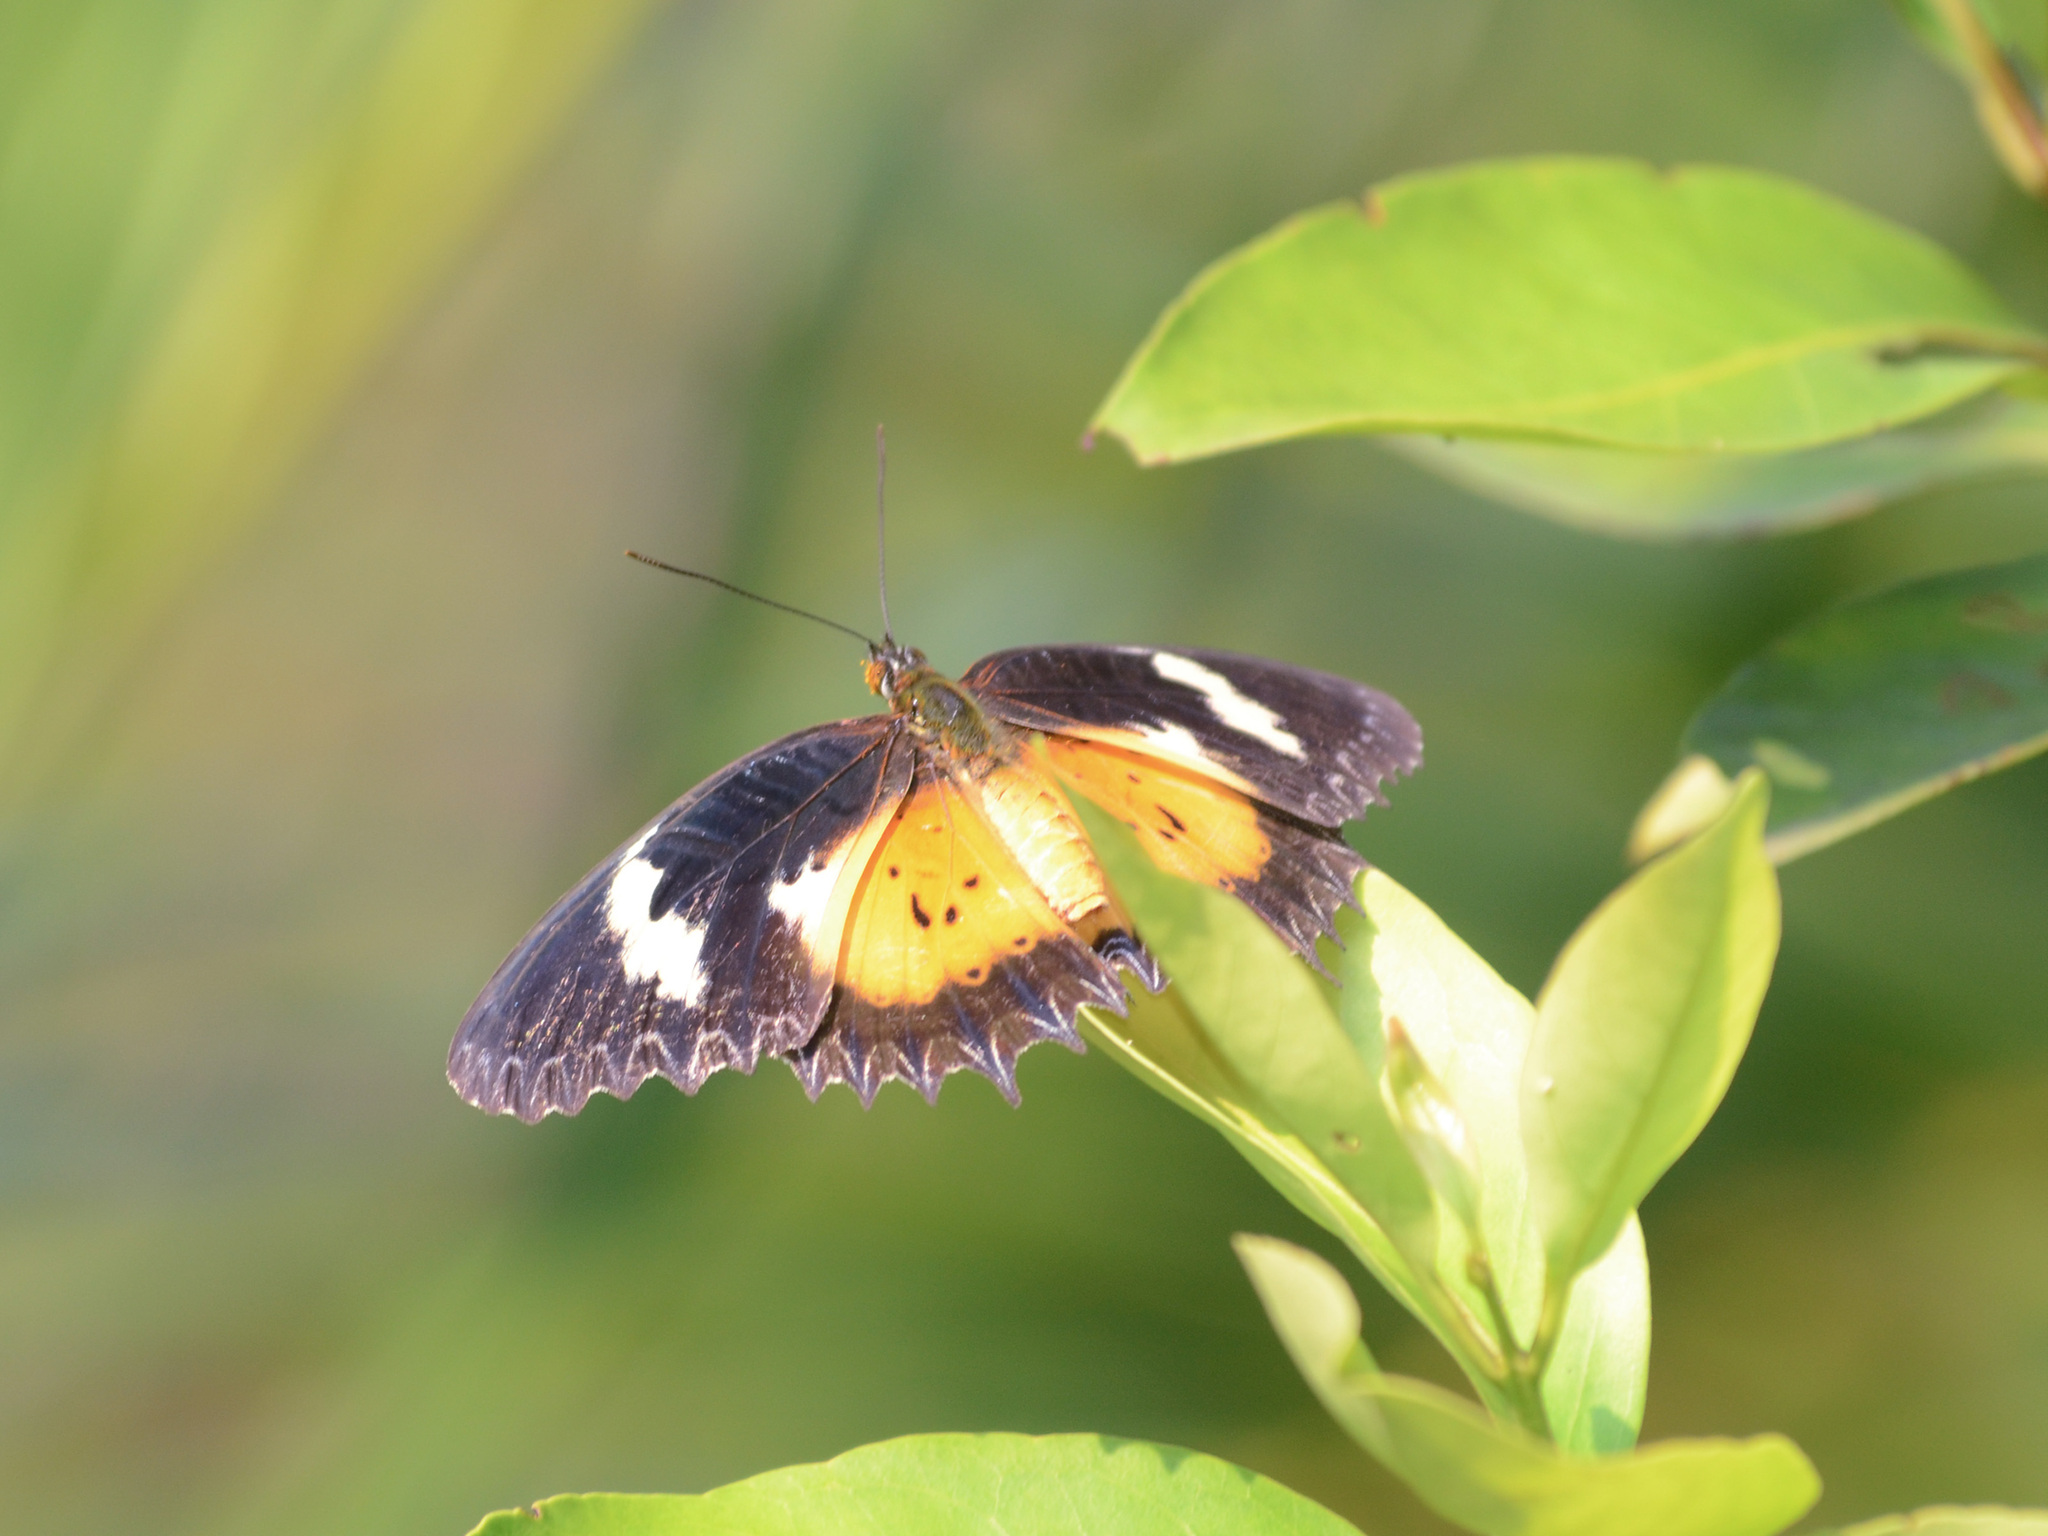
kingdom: Animalia
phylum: Arthropoda
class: Insecta
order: Lepidoptera
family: Nymphalidae
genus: Cethosia
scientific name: Cethosia hypsea
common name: Malayan lacewing butterfly
